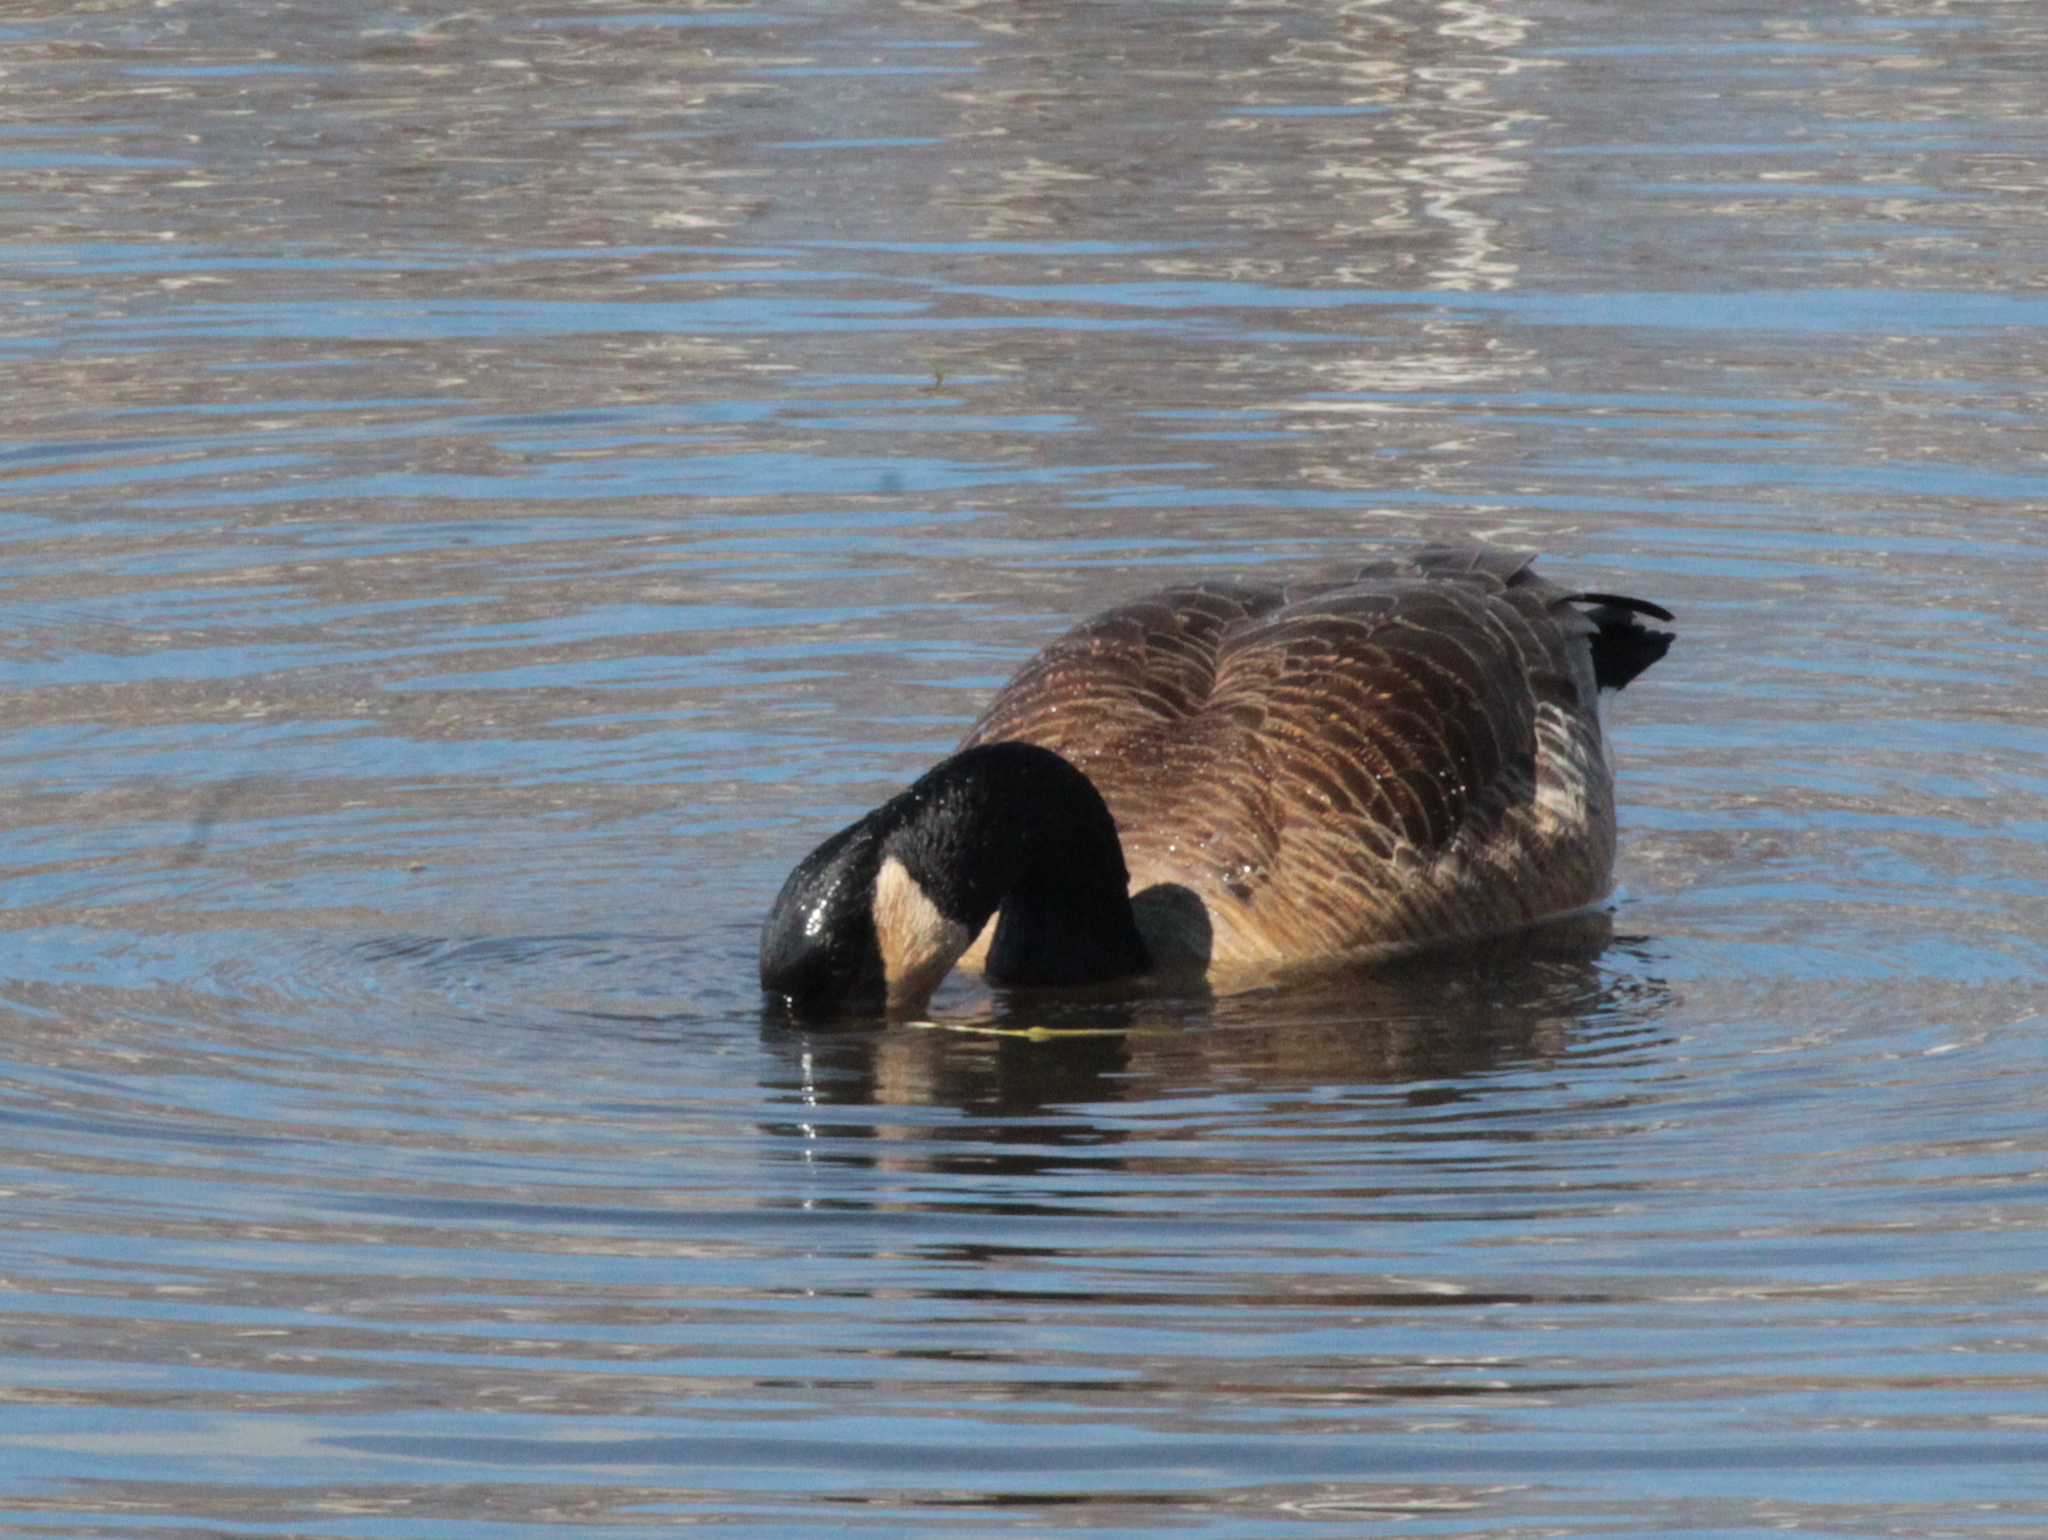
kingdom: Animalia
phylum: Chordata
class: Aves
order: Anseriformes
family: Anatidae
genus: Branta
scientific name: Branta canadensis
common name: Canada goose
